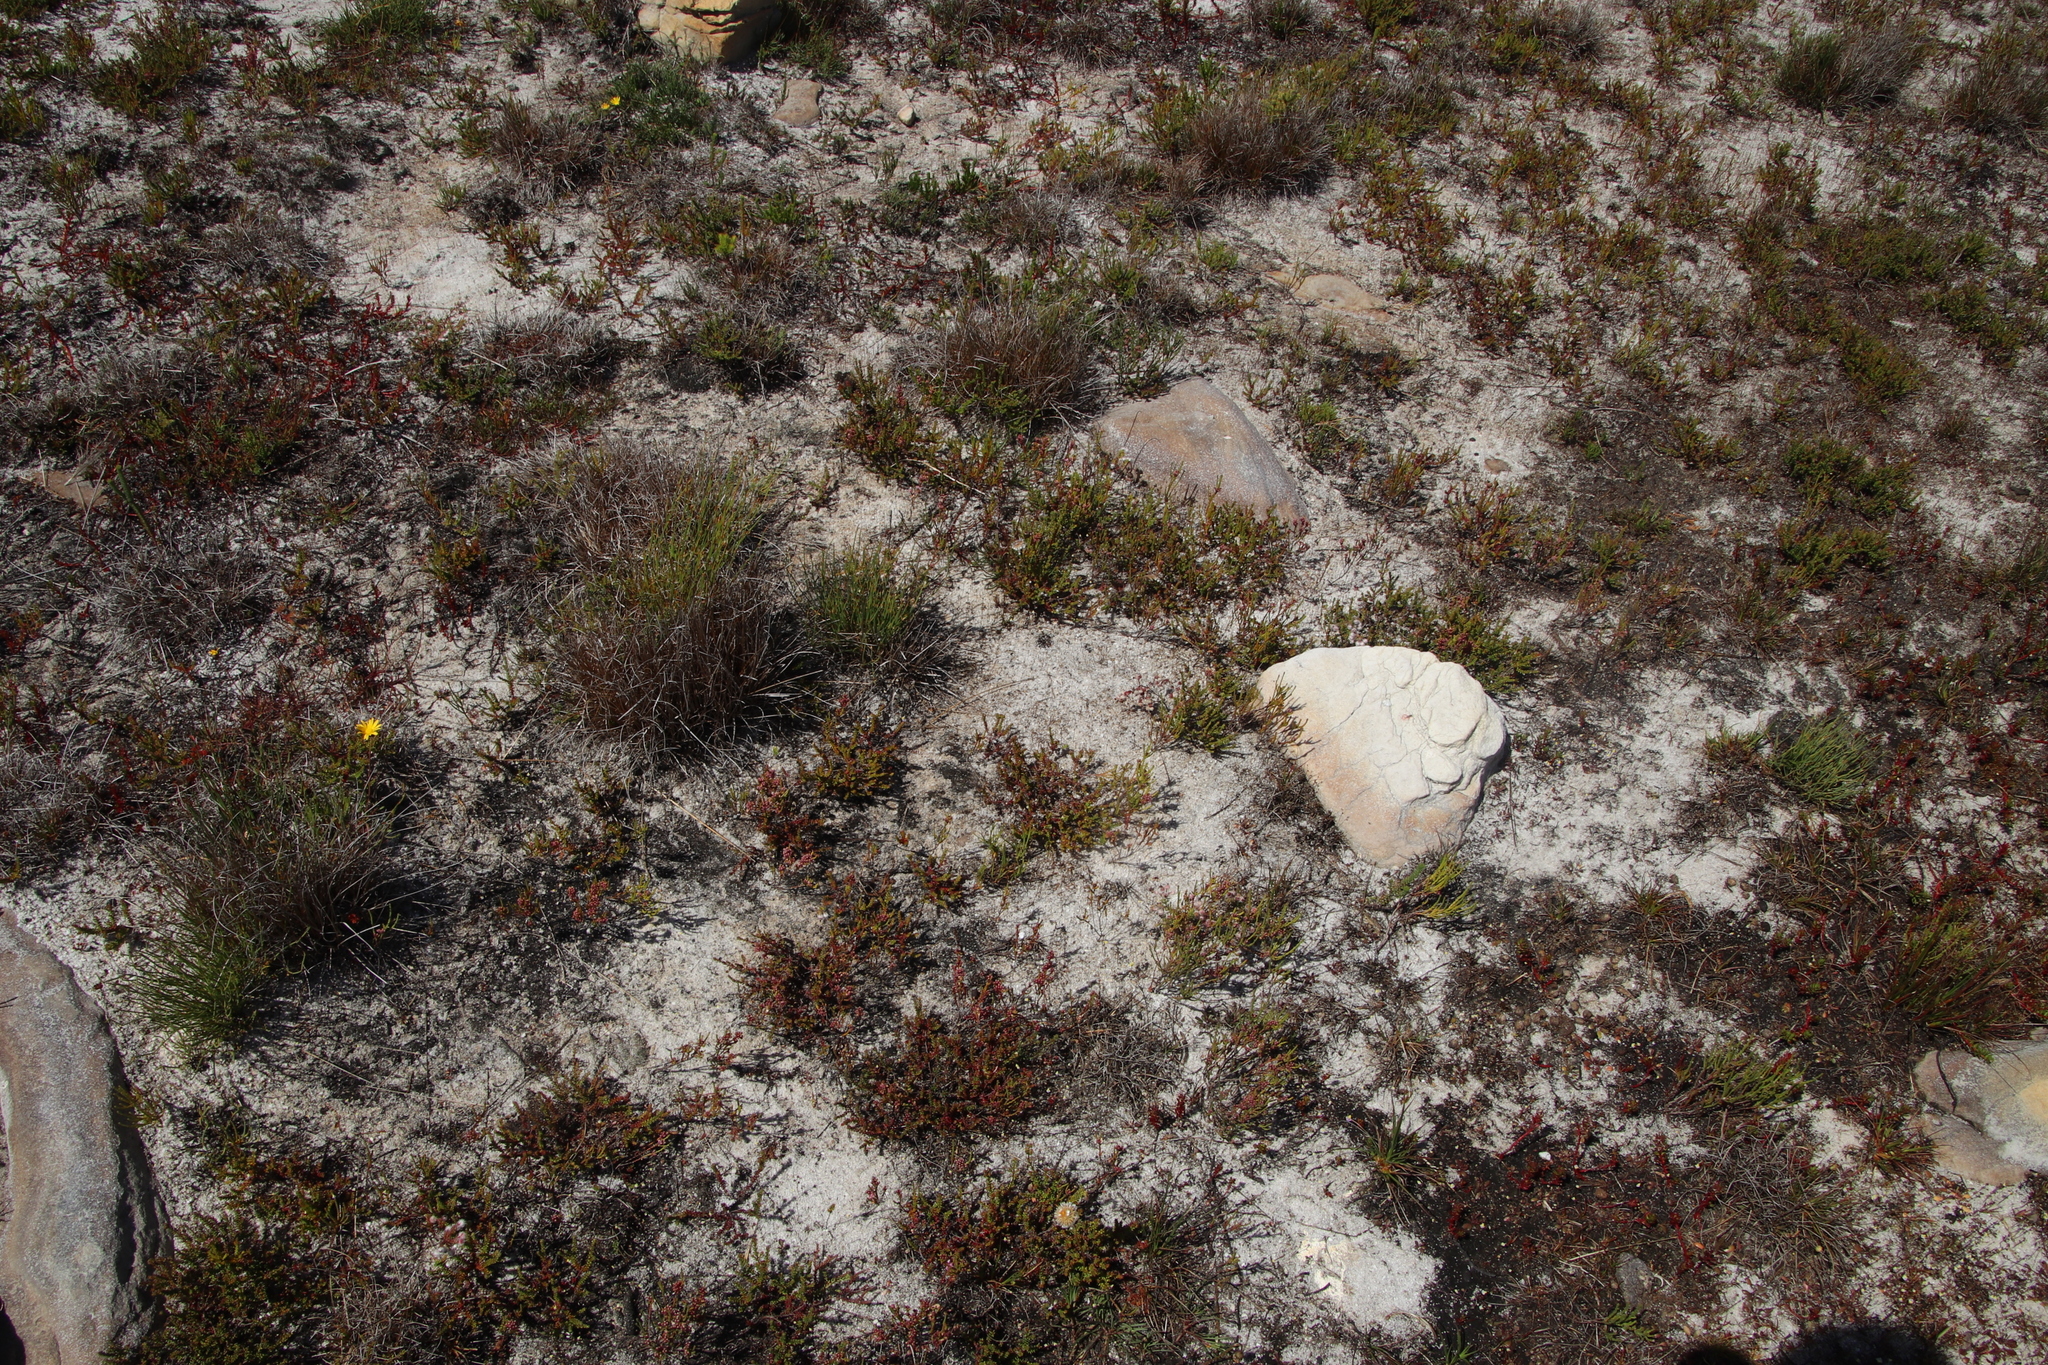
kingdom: Plantae
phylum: Tracheophyta
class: Magnoliopsida
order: Ericales
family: Ericaceae
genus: Erica
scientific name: Erica bruniades
